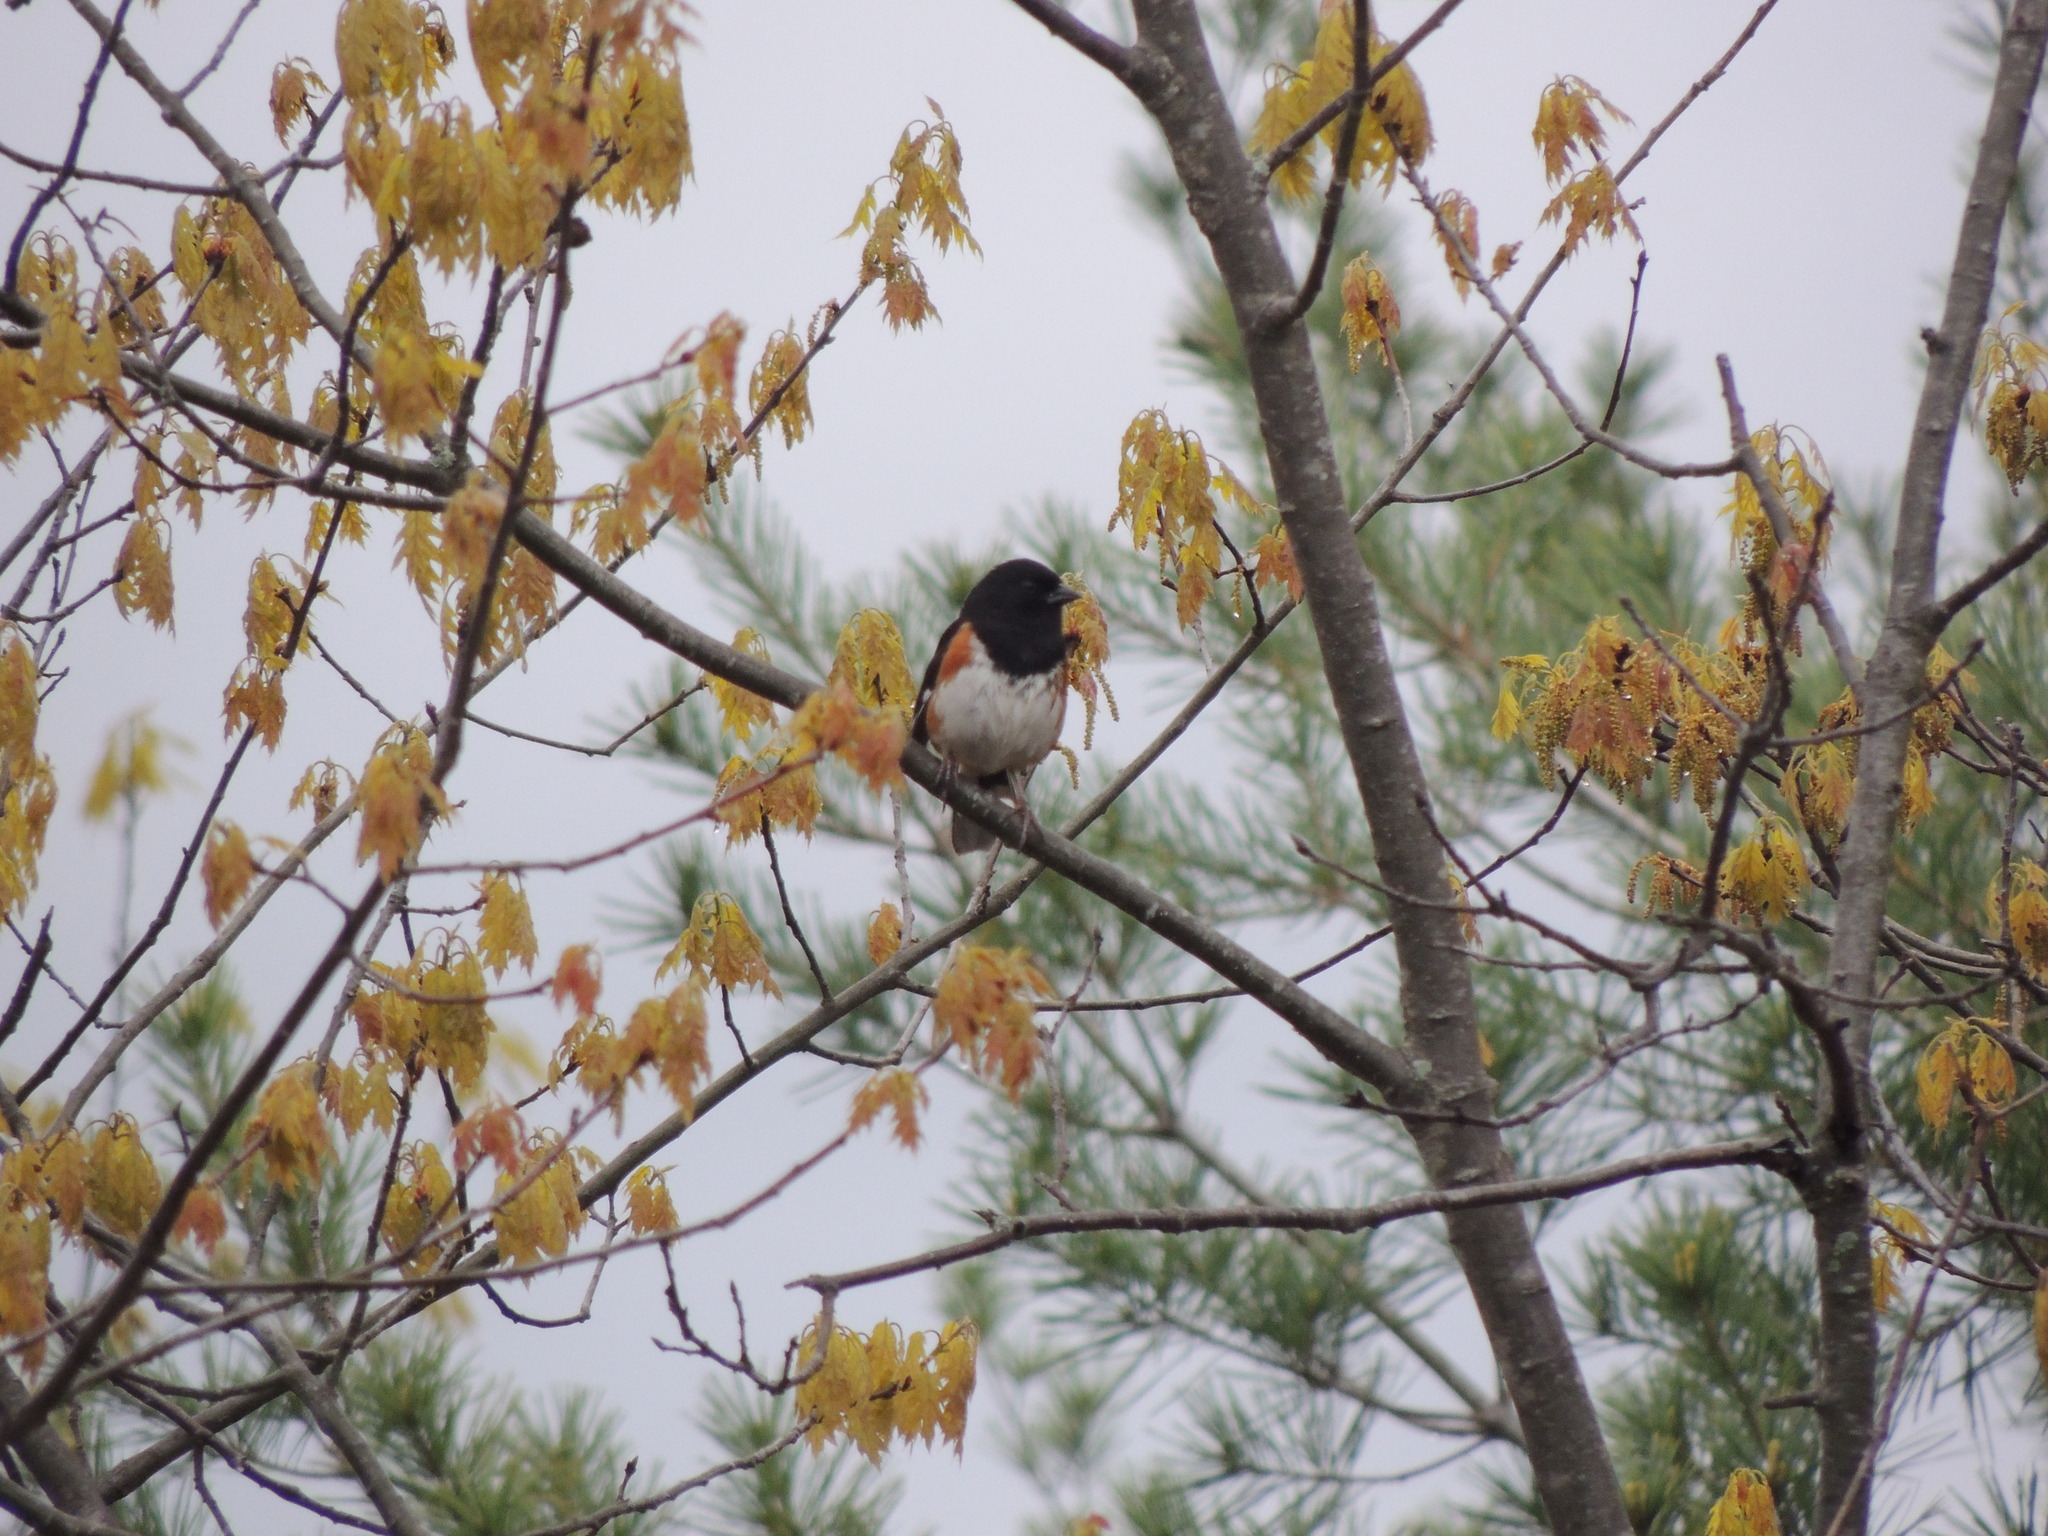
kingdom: Animalia
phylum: Chordata
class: Aves
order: Passeriformes
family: Passerellidae
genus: Pipilo
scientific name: Pipilo erythrophthalmus
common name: Eastern towhee
